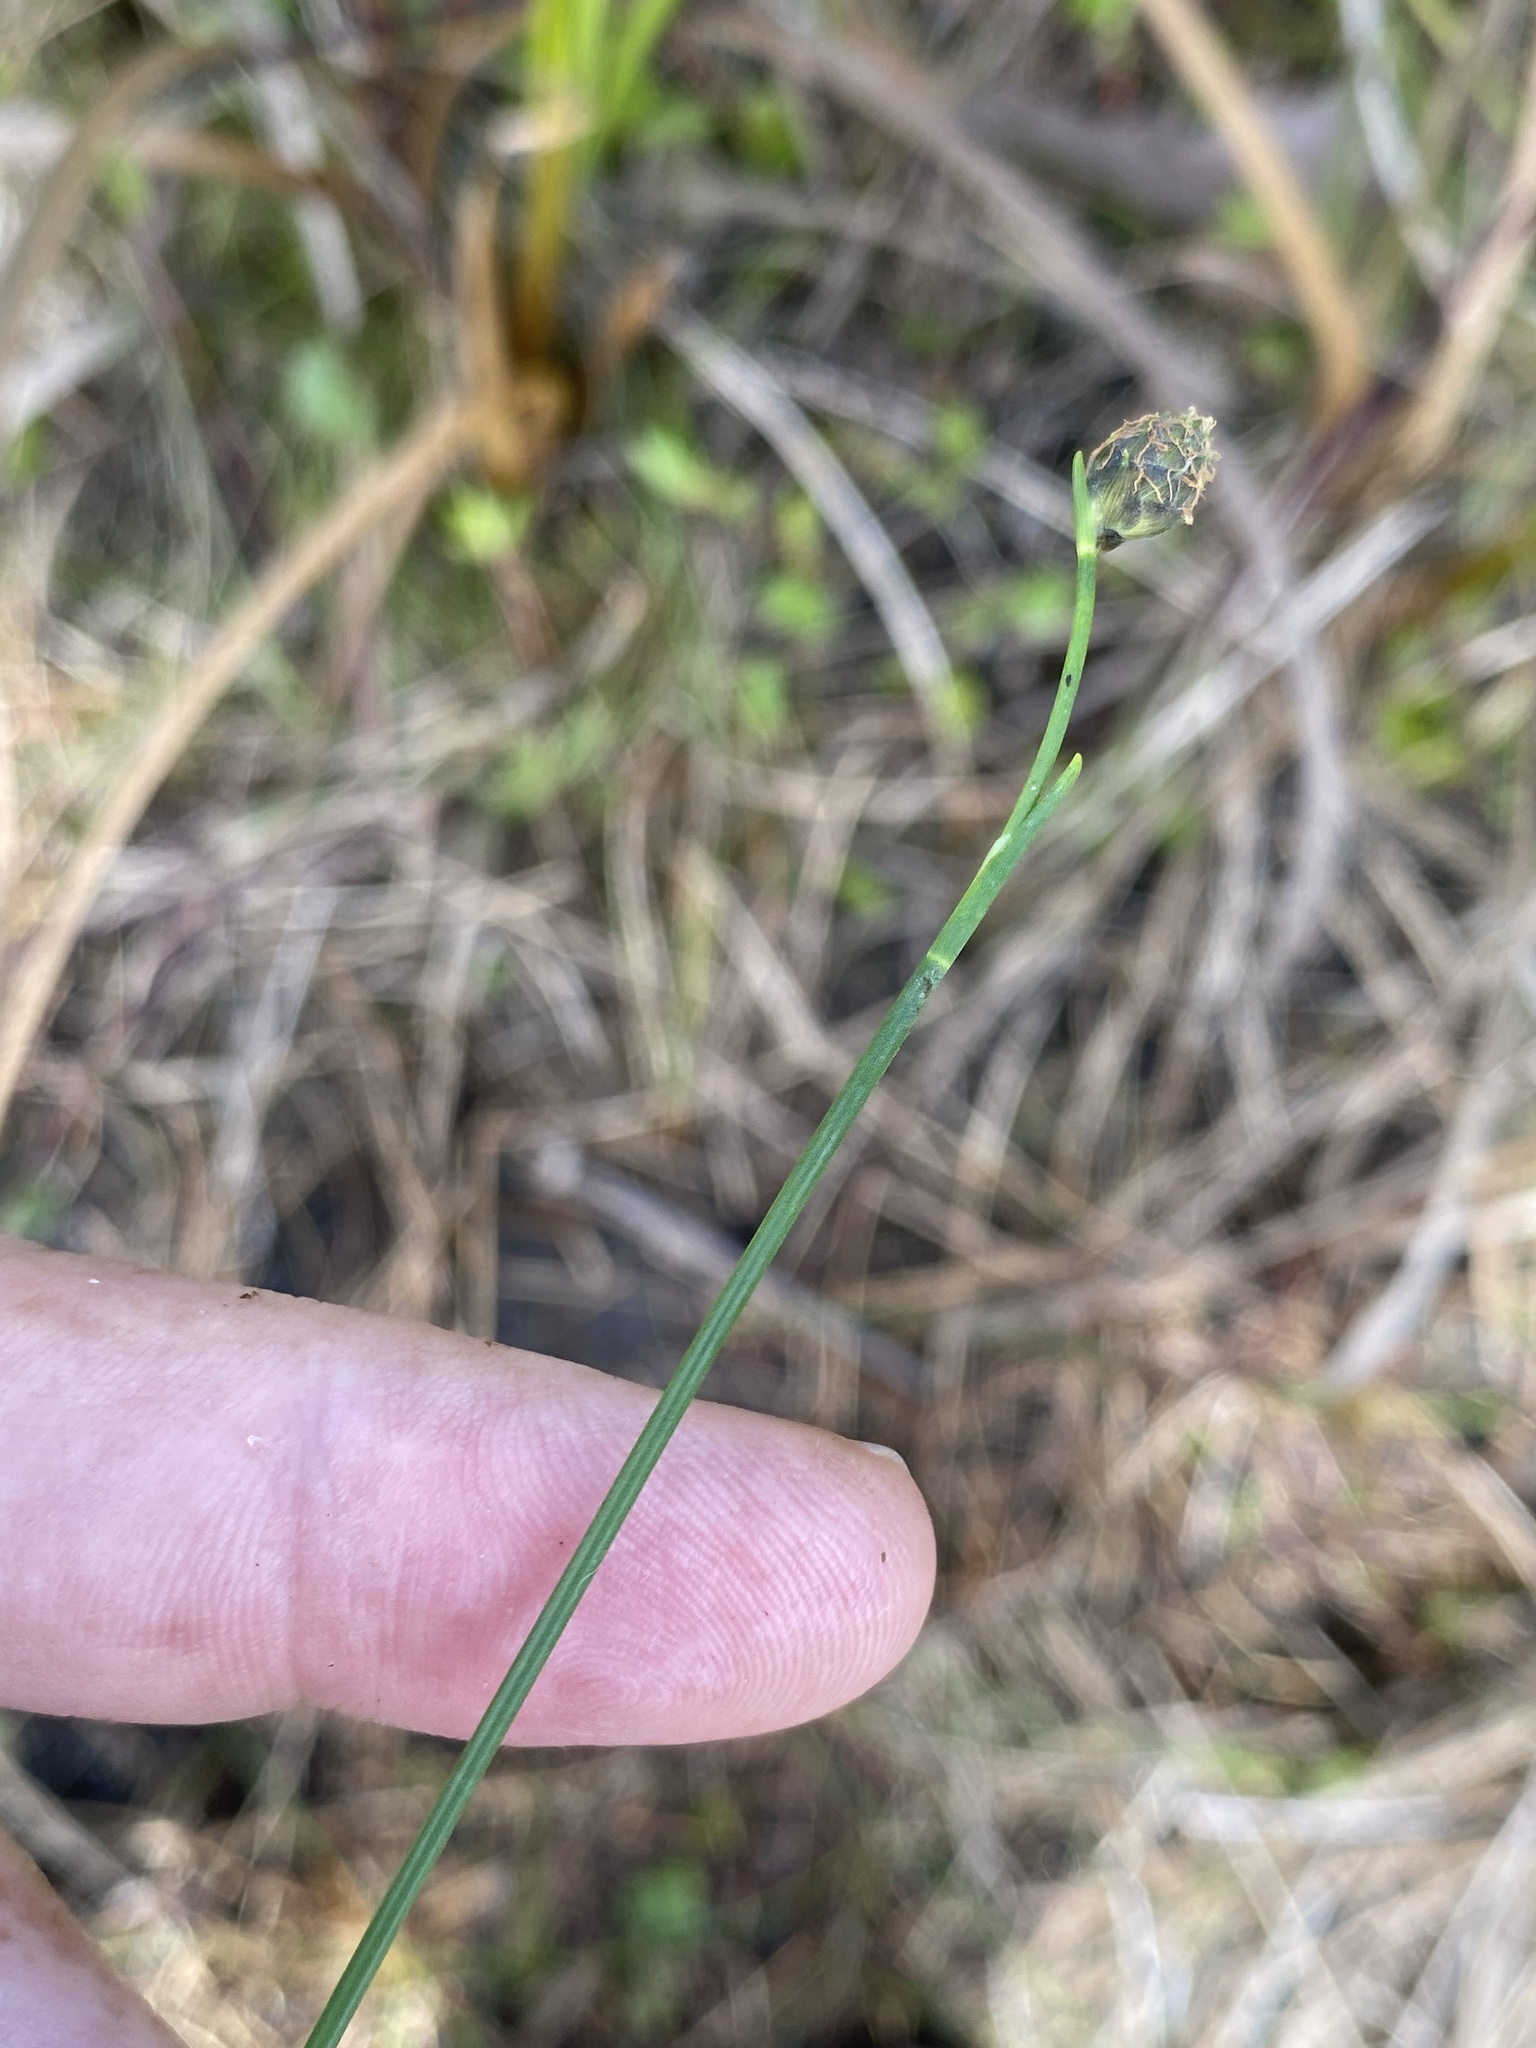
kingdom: Plantae
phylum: Tracheophyta
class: Liliopsida
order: Poales
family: Cyperaceae
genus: Fuirena
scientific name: Fuirena scirpoidea
